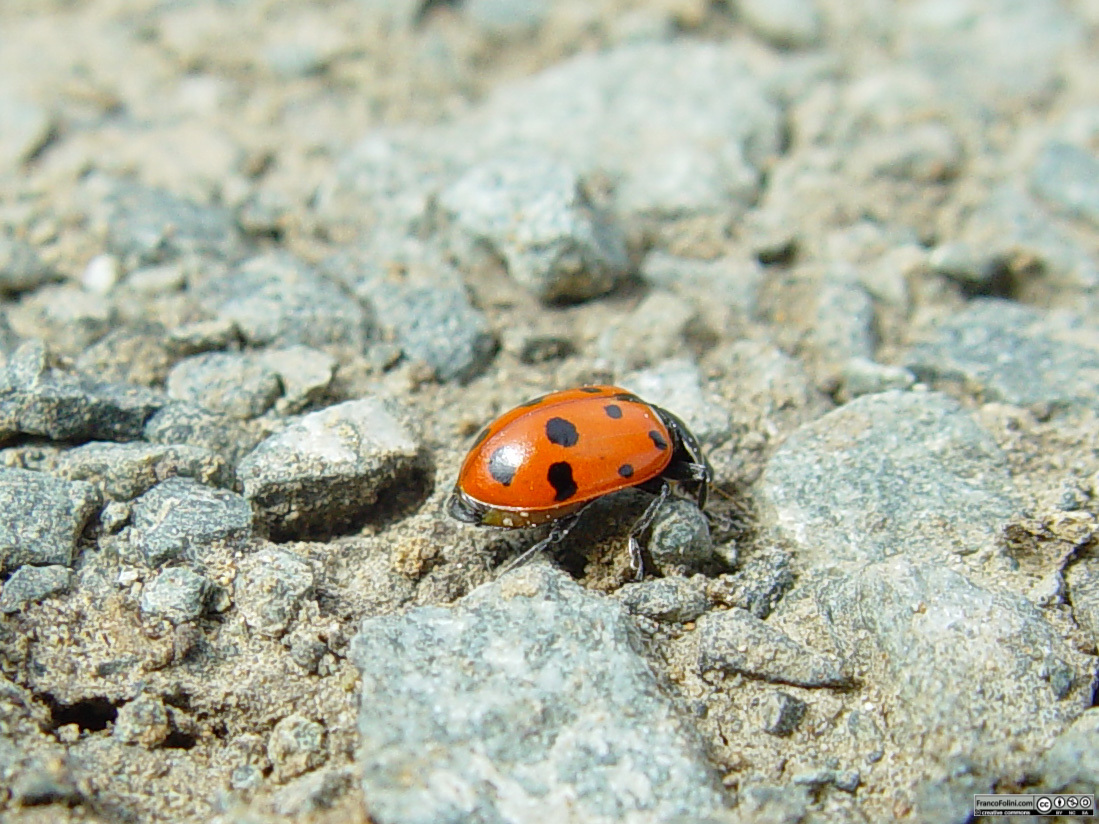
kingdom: Animalia
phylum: Arthropoda
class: Insecta
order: Coleoptera
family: Coccinellidae
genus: Hippodamia
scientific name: Hippodamia convergens
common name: Convergent lady beetle
